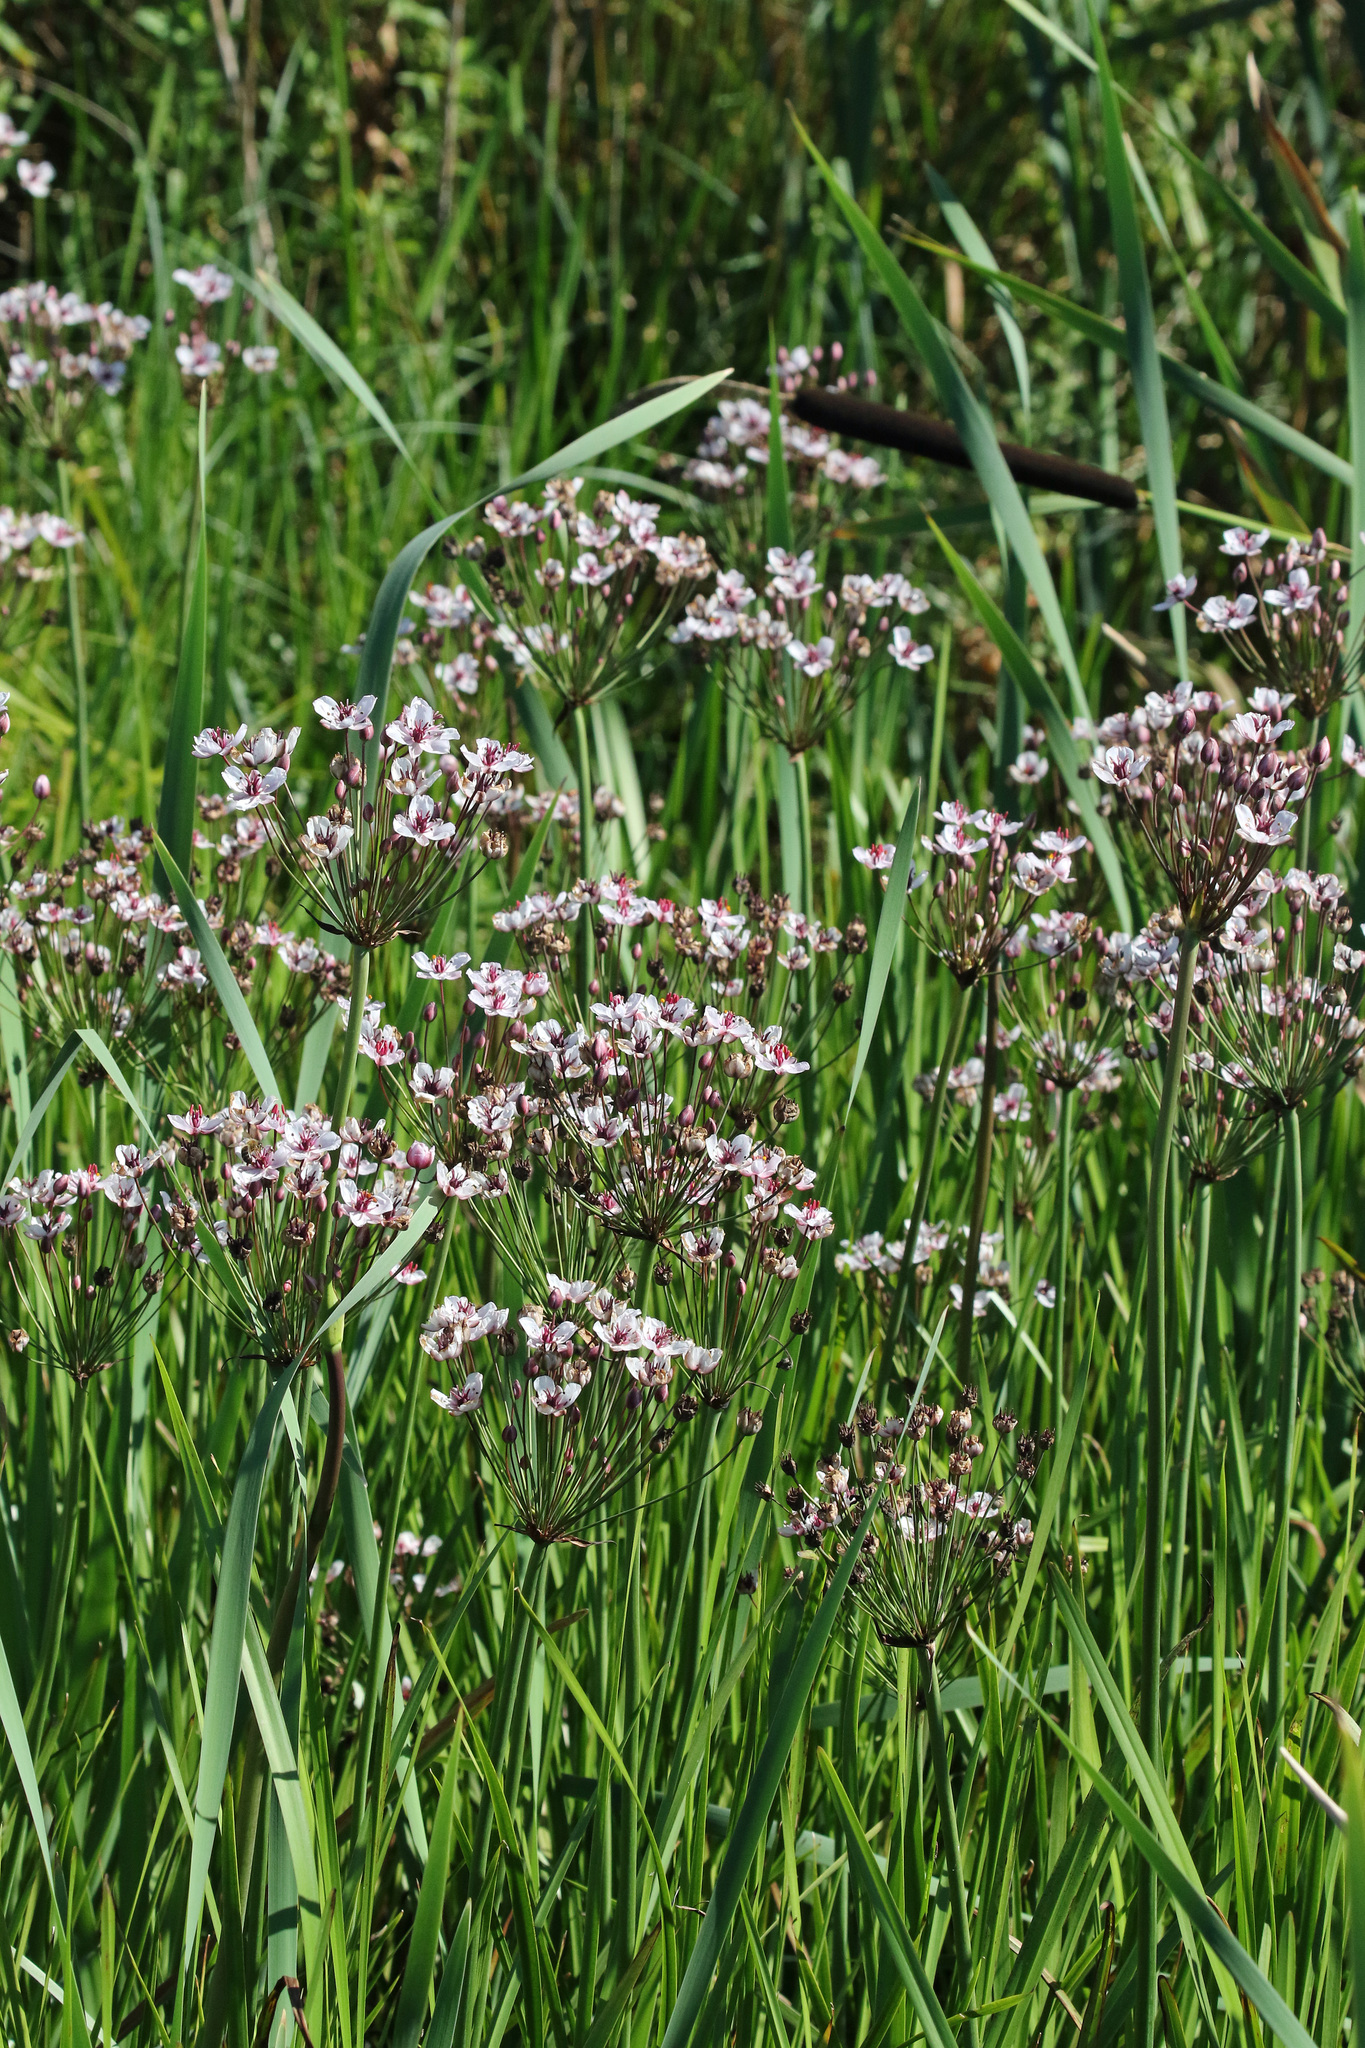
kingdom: Plantae
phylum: Tracheophyta
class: Liliopsida
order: Alismatales
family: Butomaceae
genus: Butomus
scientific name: Butomus umbellatus
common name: Flowering-rush
